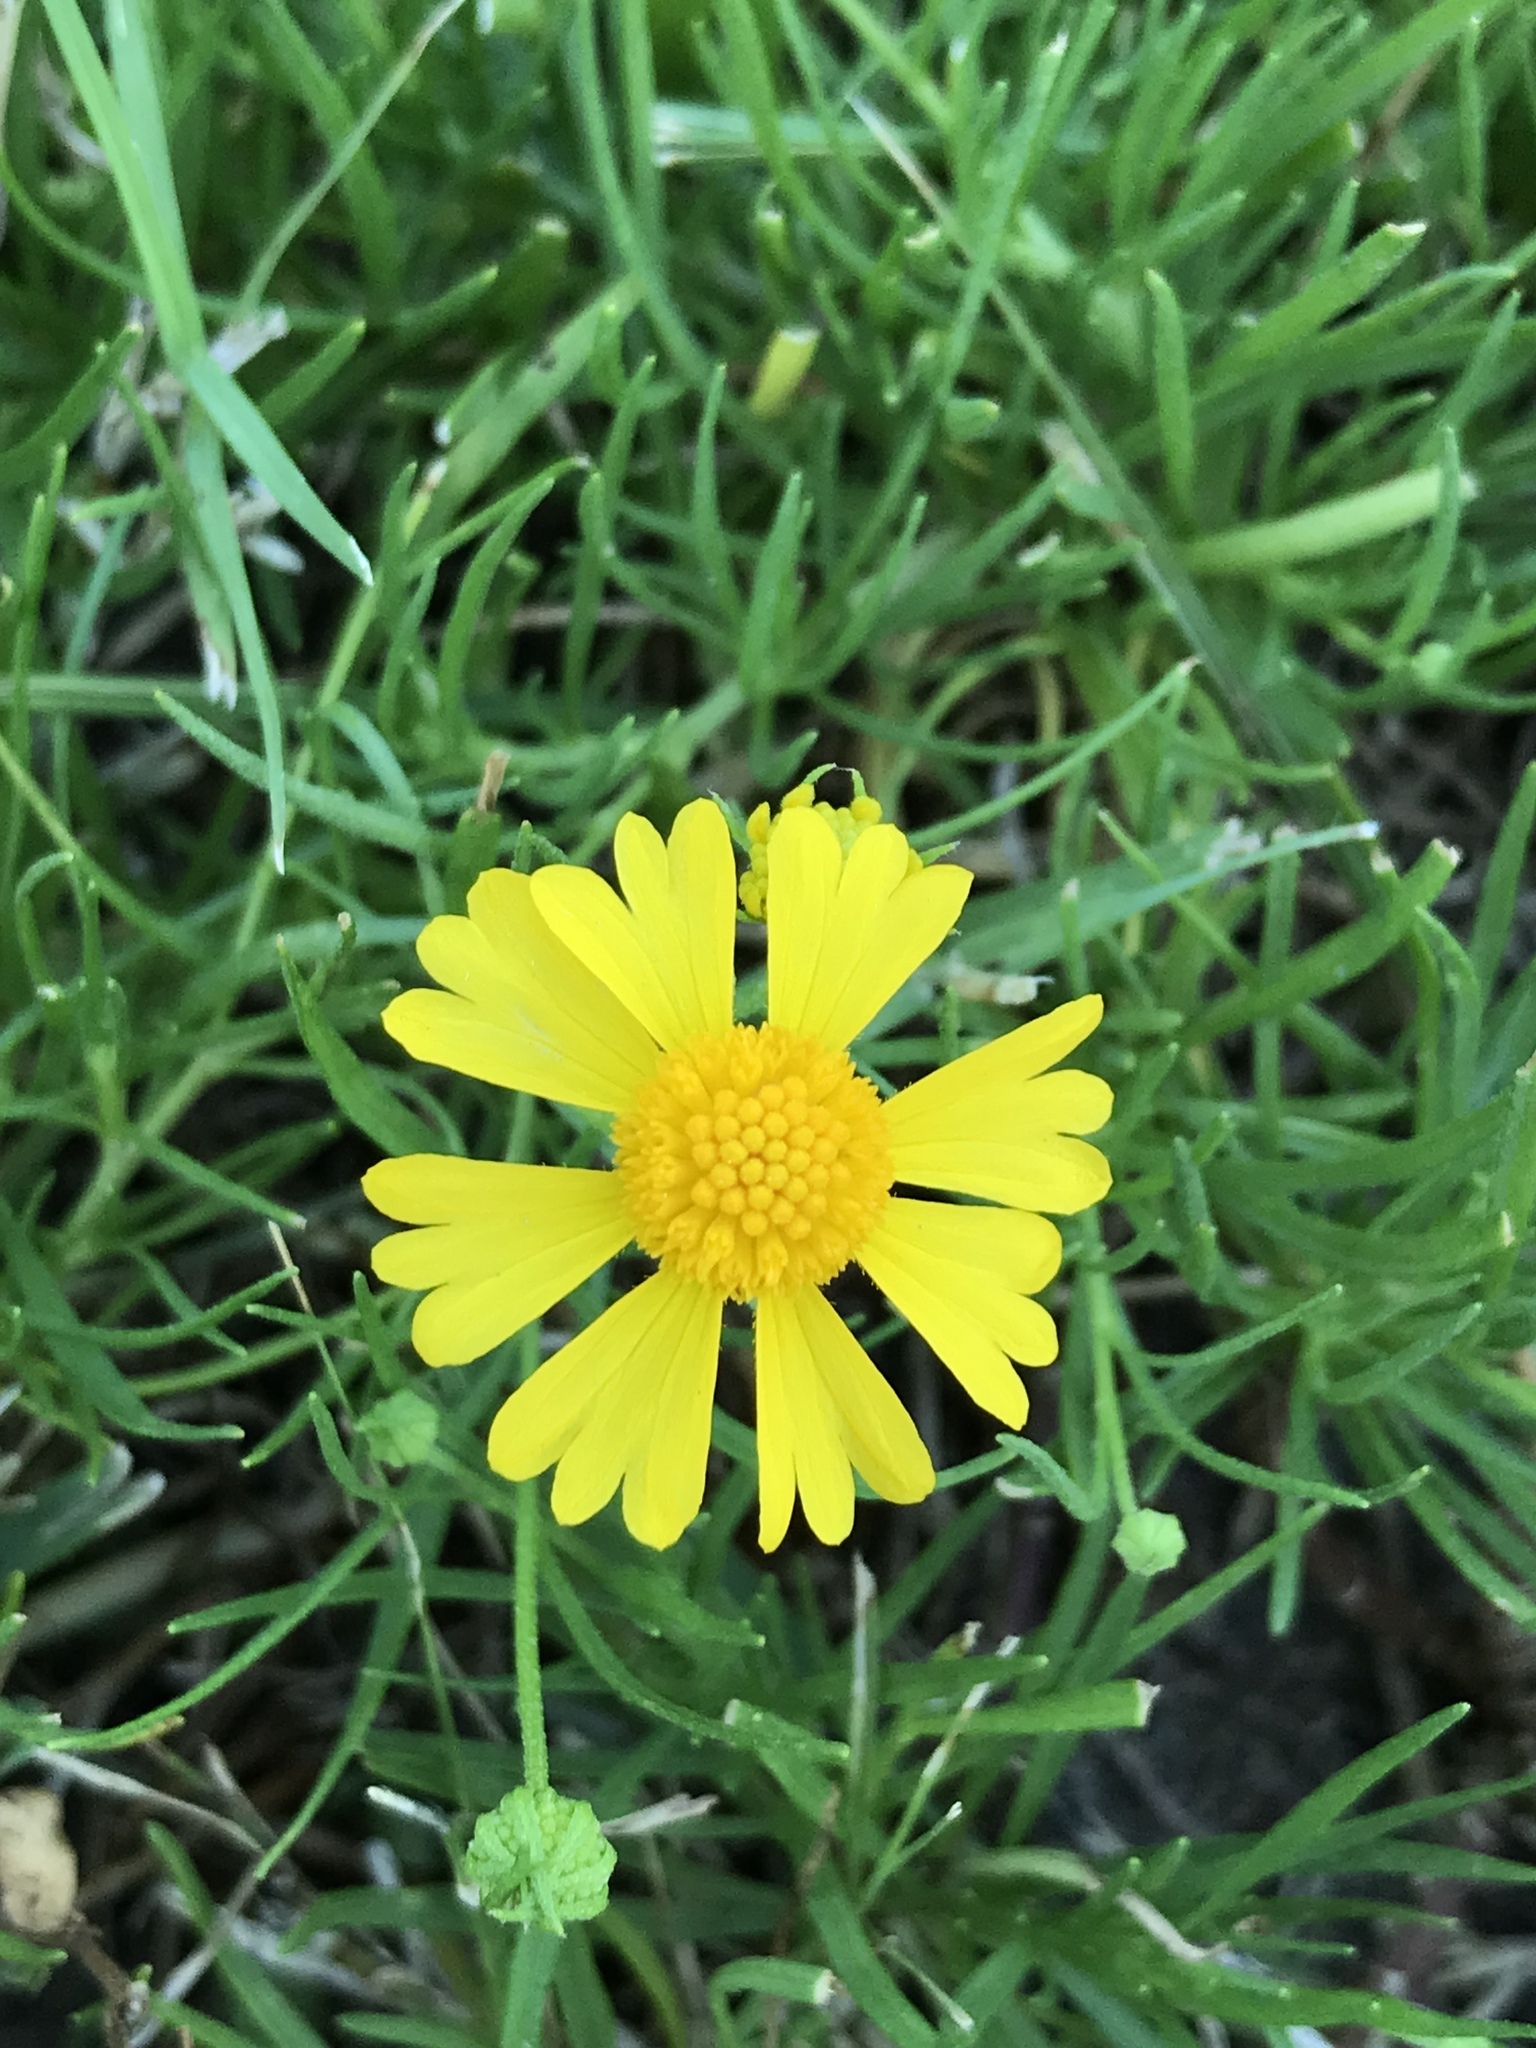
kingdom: Plantae
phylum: Tracheophyta
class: Magnoliopsida
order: Asterales
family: Asteraceae
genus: Helenium
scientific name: Helenium amarum
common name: Bitter sneezeweed
